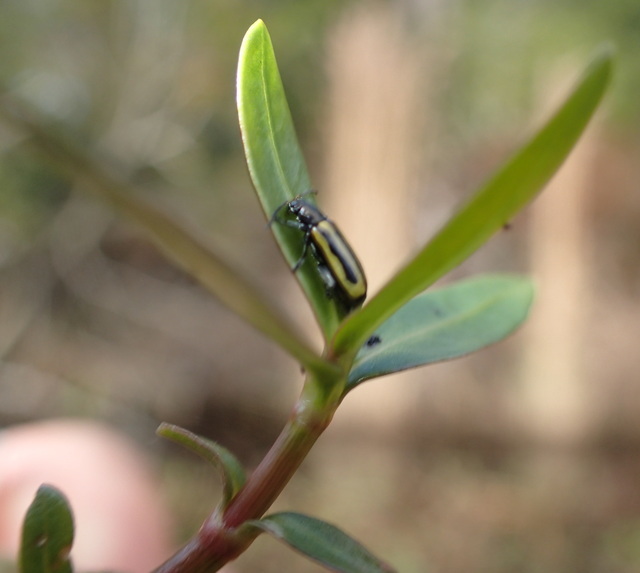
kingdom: Animalia
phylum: Arthropoda
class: Insecta
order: Coleoptera
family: Chrysomelidae
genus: Agasicles
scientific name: Agasicles hygrophila
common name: Alligatorweed flea beetle
